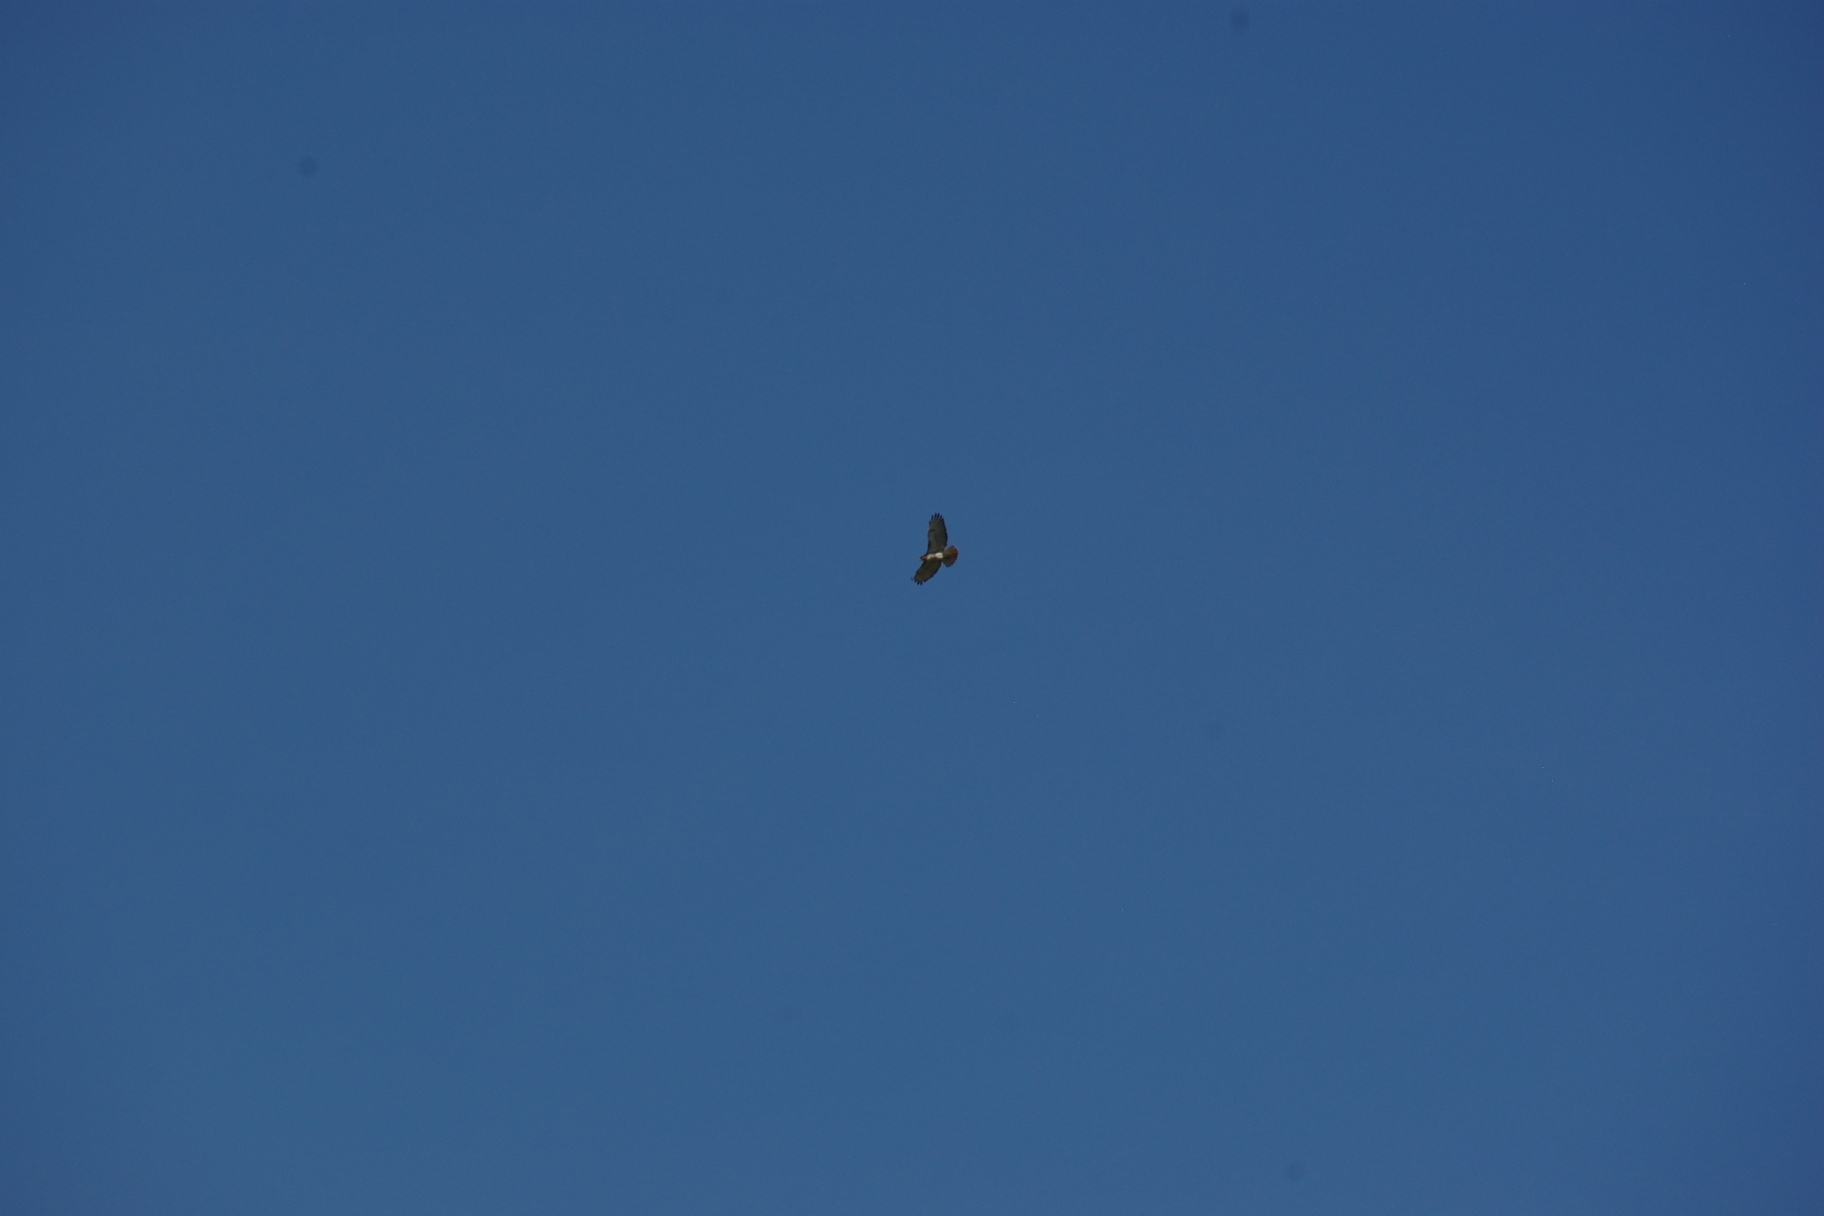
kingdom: Animalia
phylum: Chordata
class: Aves
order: Accipitriformes
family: Accipitridae
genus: Buteo
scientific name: Buteo jamaicensis
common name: Red-tailed hawk
